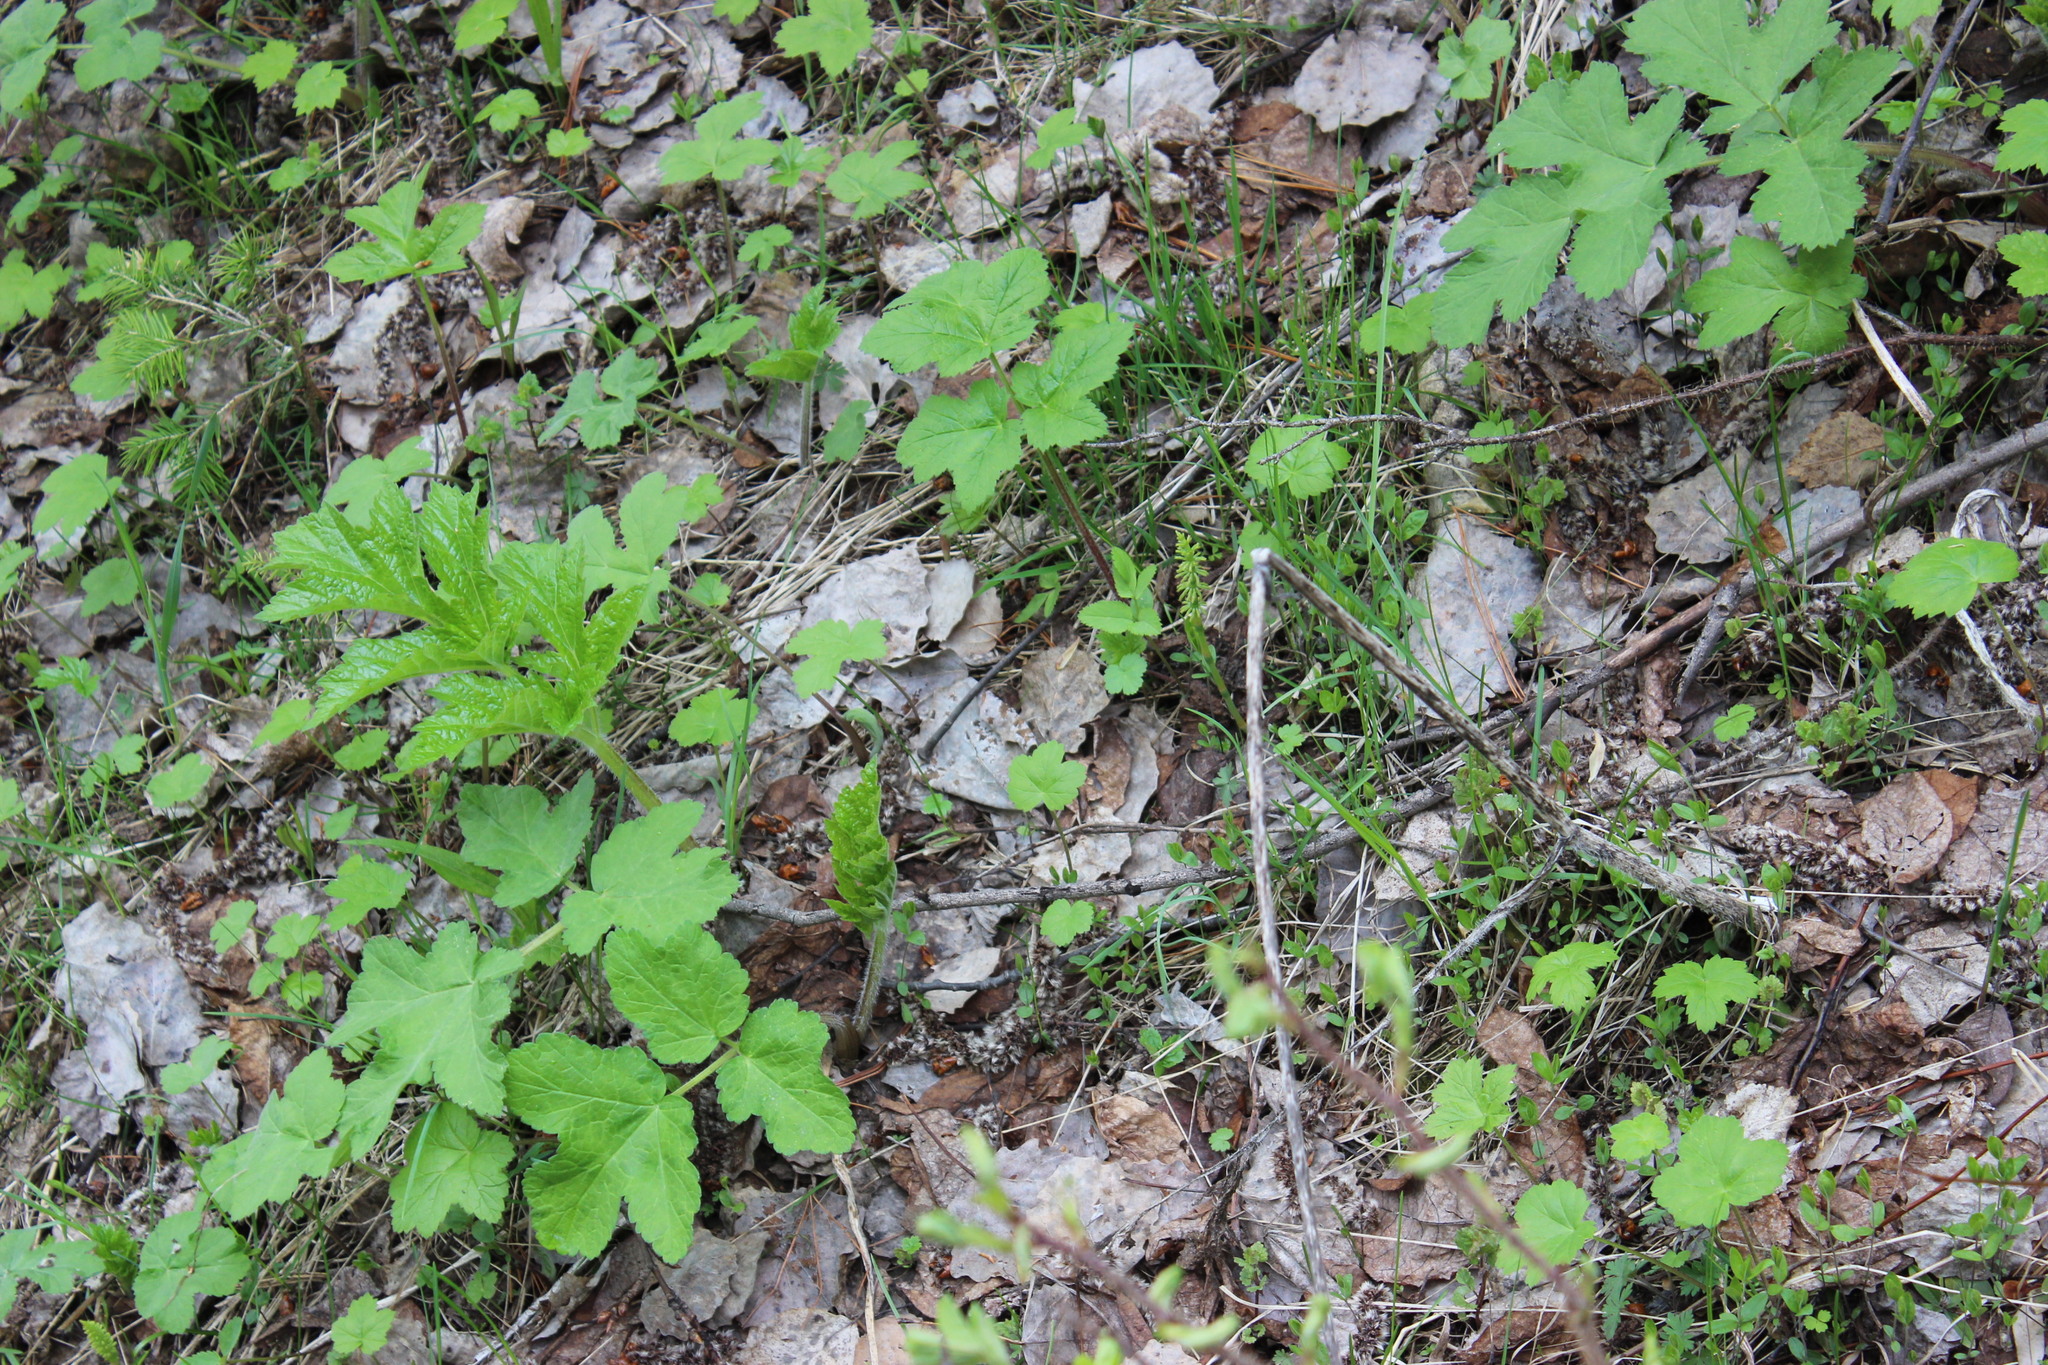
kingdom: Plantae
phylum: Tracheophyta
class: Magnoliopsida
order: Apiales
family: Apiaceae
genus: Heracleum
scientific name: Heracleum sphondylium
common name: Hogweed
